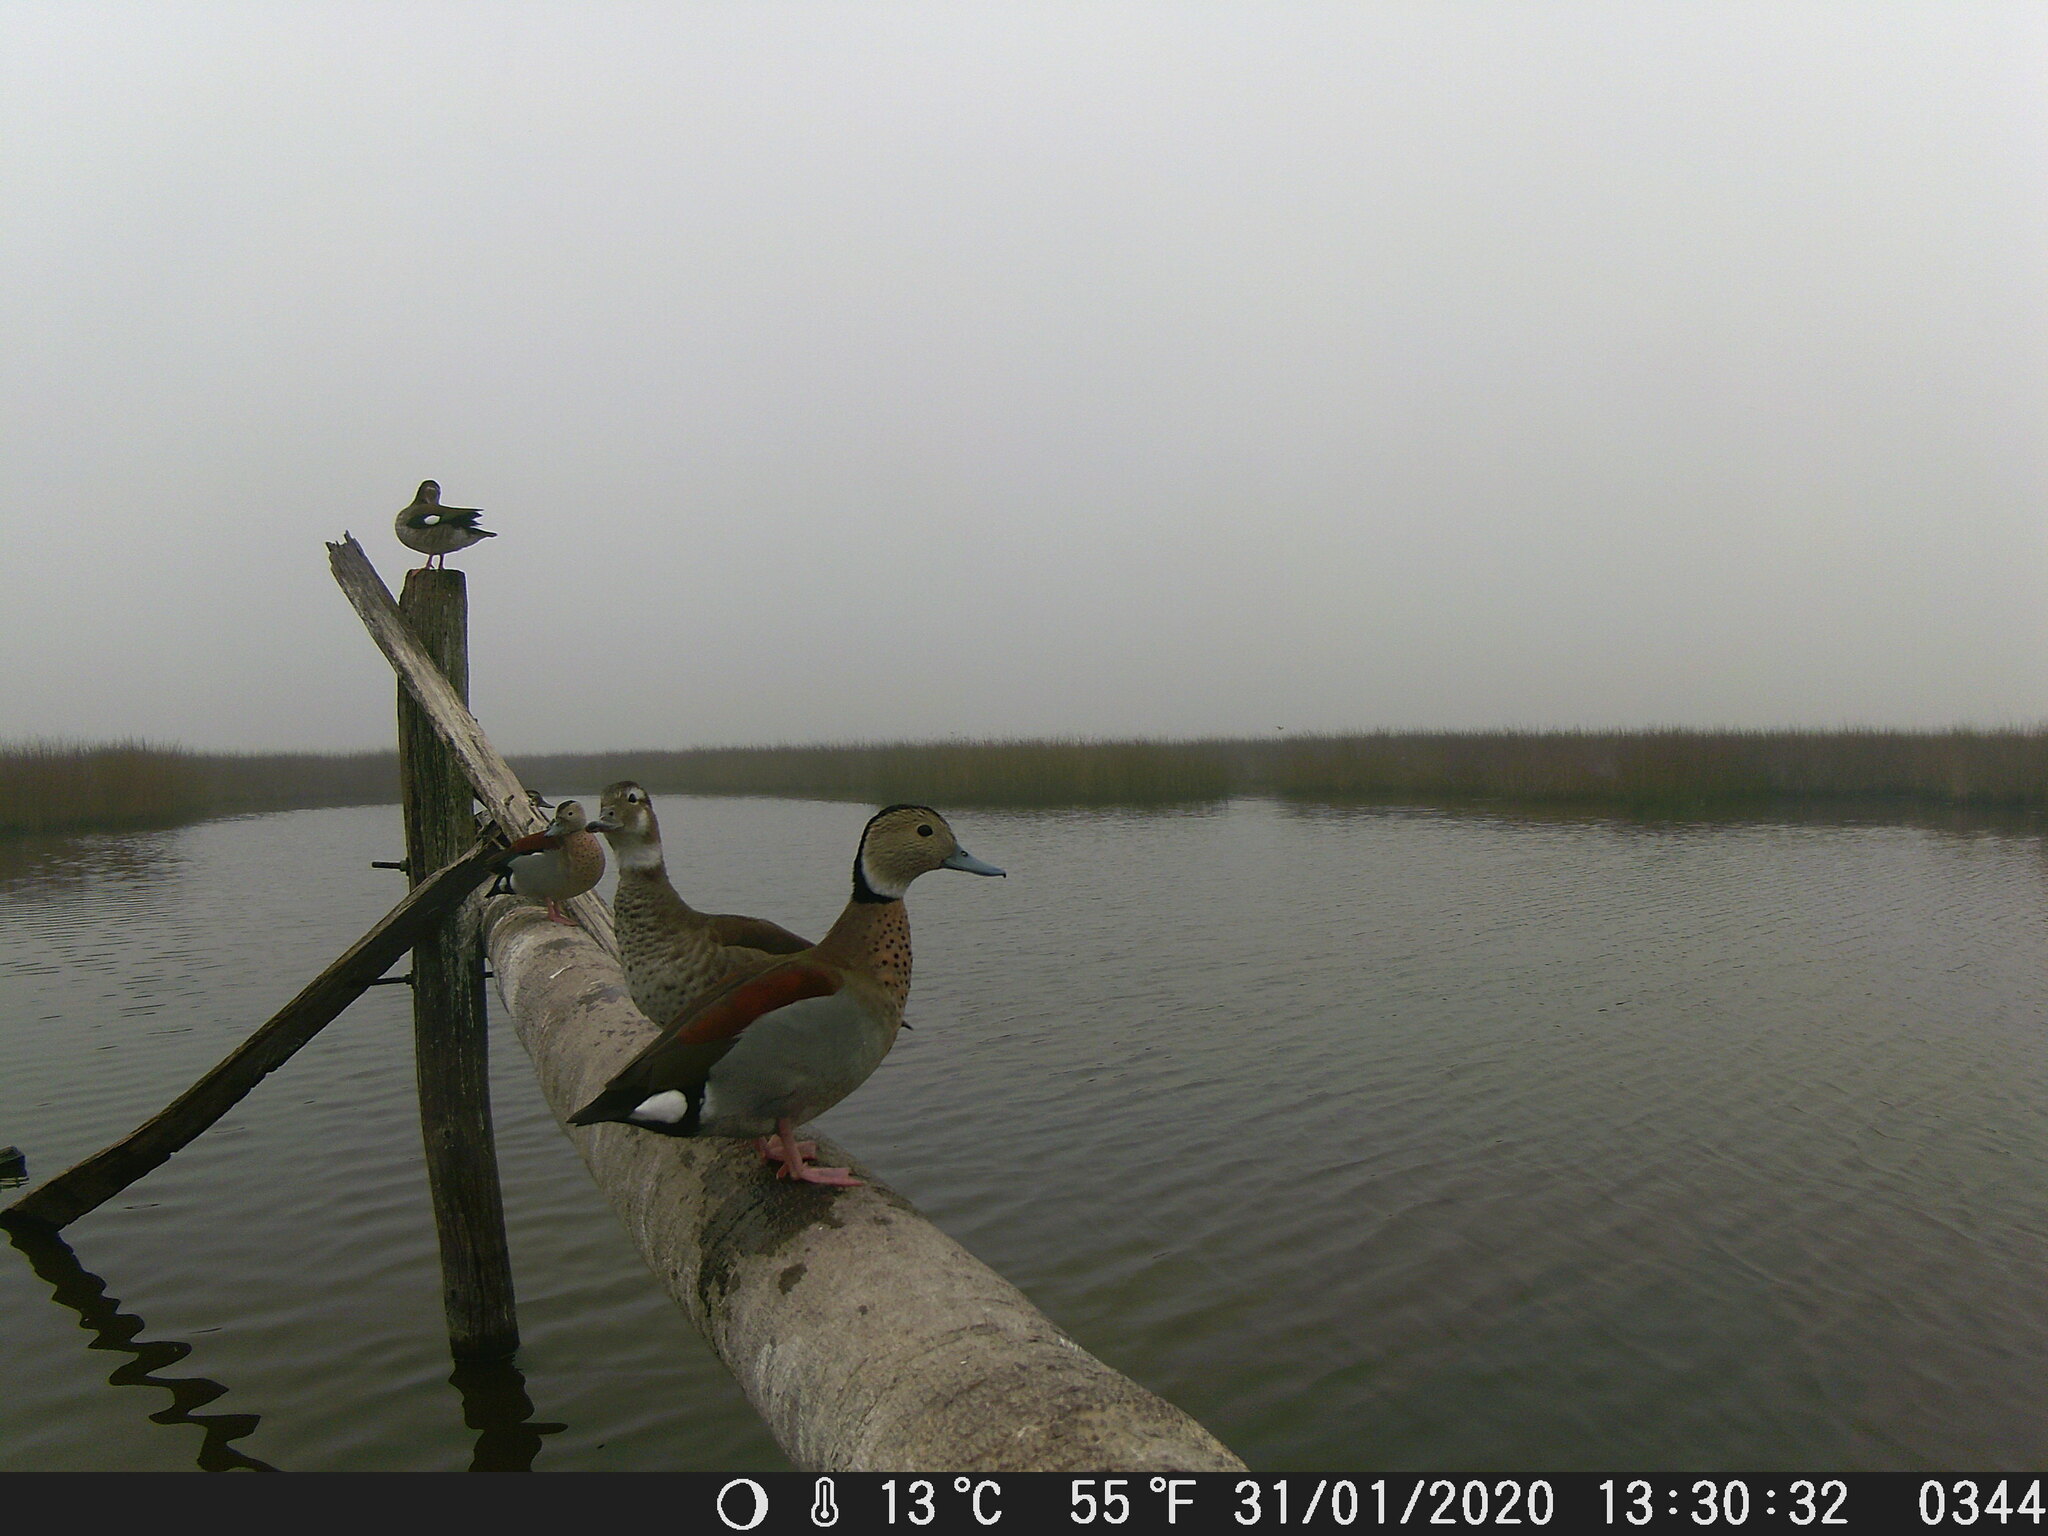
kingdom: Animalia
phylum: Chordata
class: Aves
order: Anseriformes
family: Anatidae
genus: Callonetta
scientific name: Callonetta leucophrys
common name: Ringed teal
